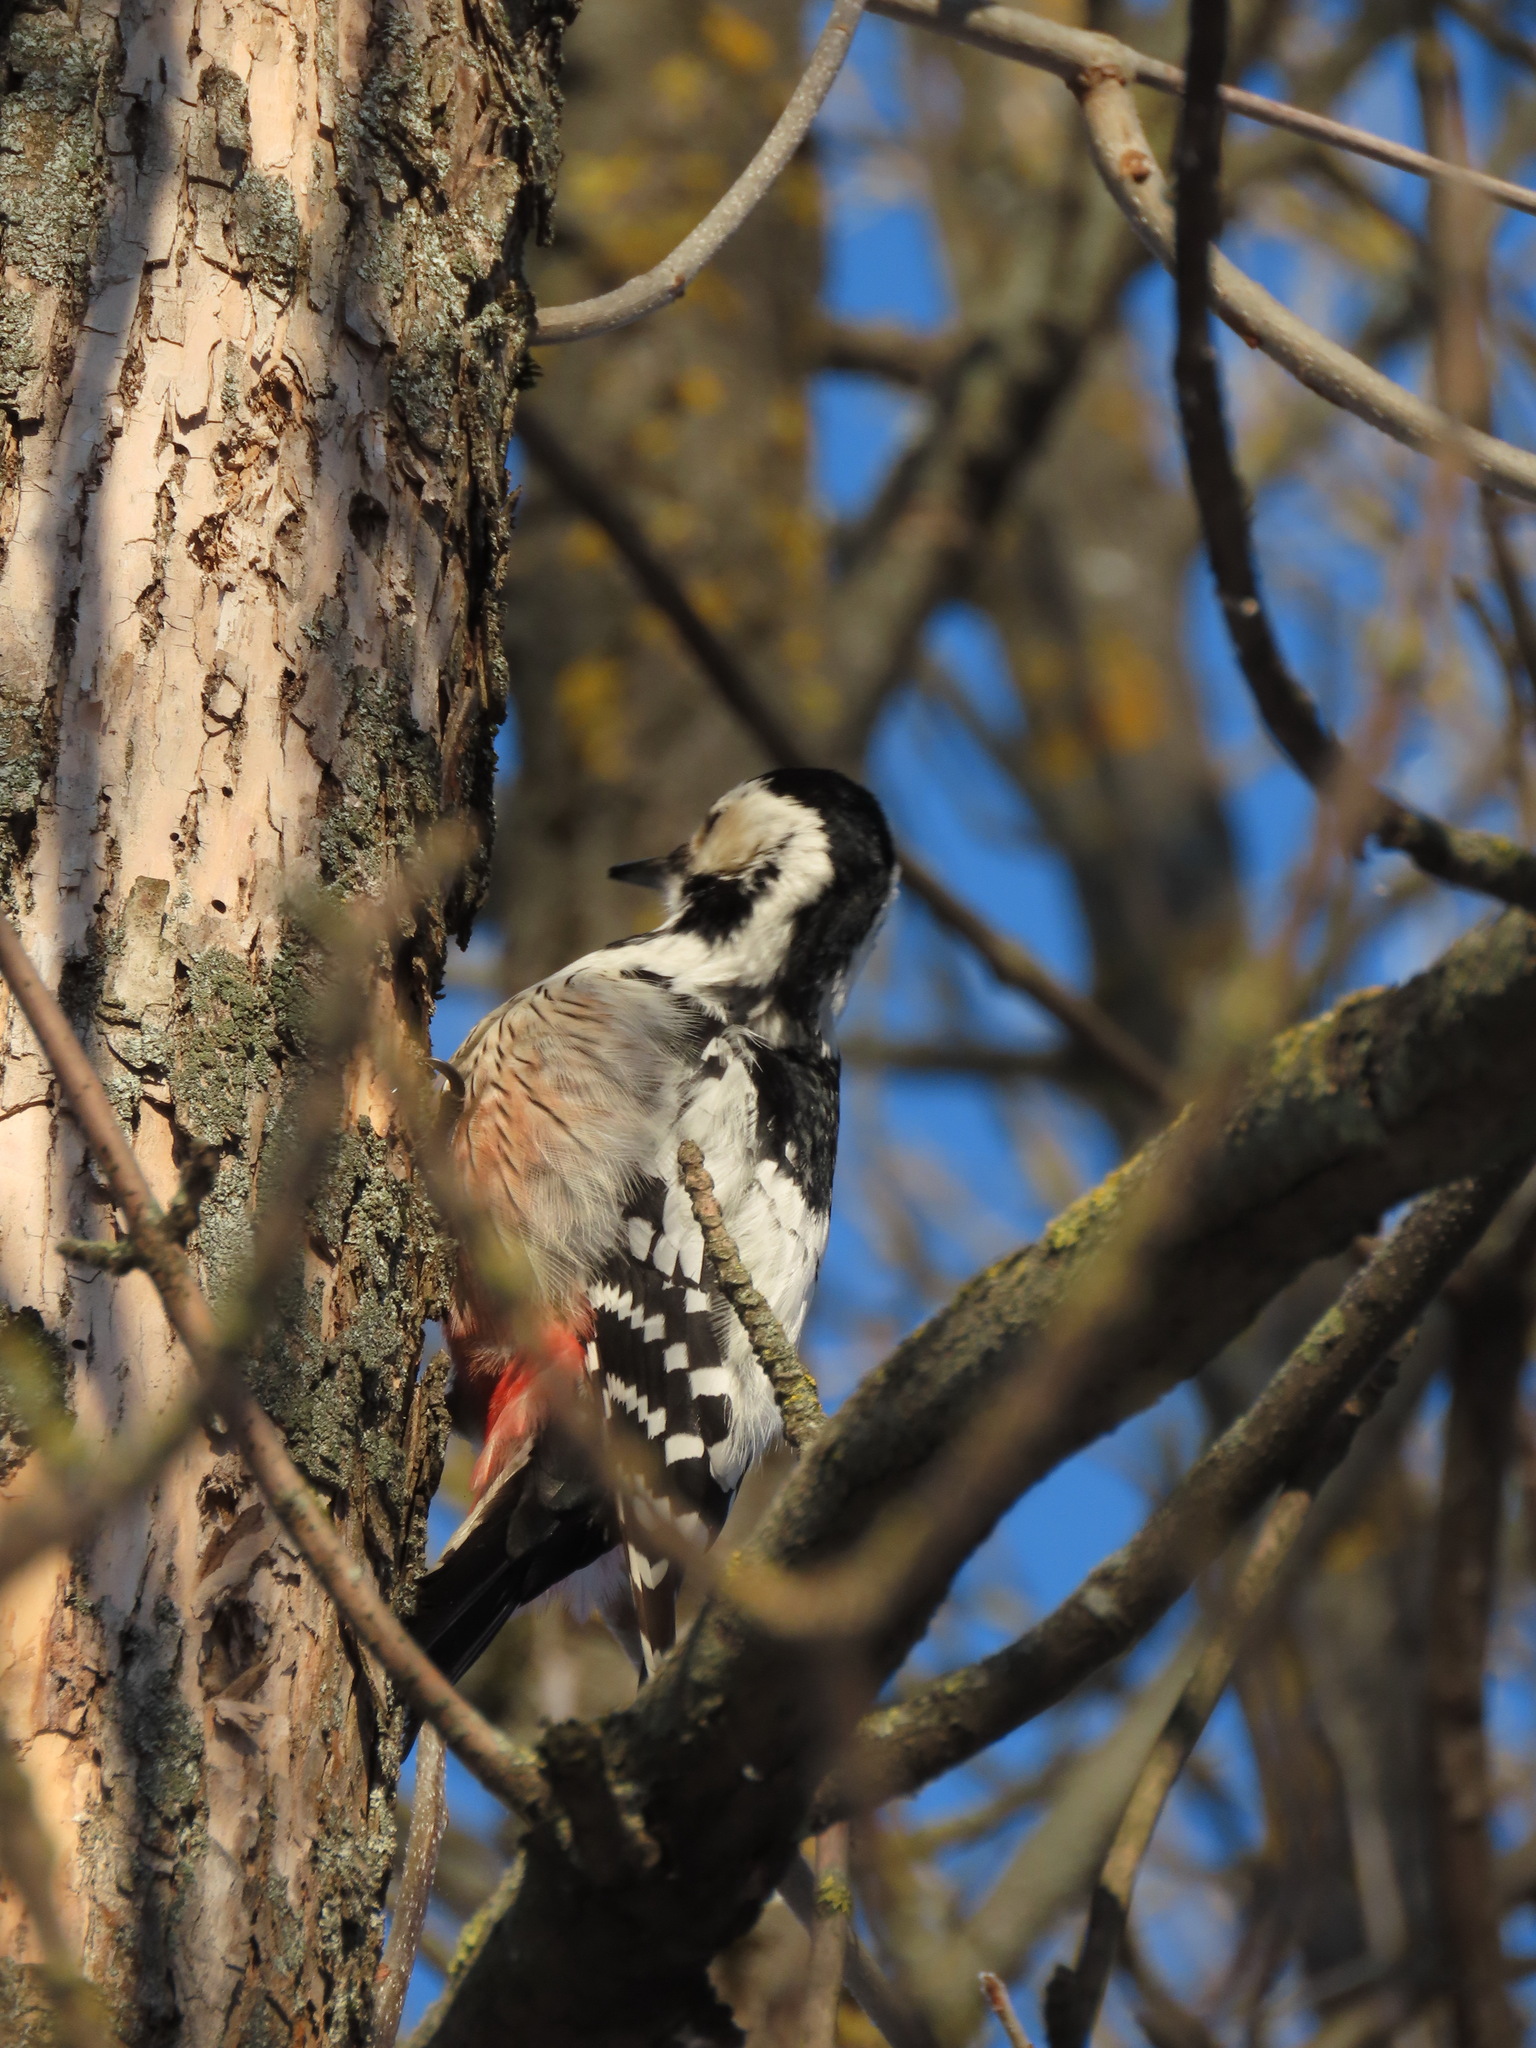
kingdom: Animalia
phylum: Chordata
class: Aves
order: Piciformes
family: Picidae
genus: Dendrocopos
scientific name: Dendrocopos leucotos
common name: White-backed woodpecker
